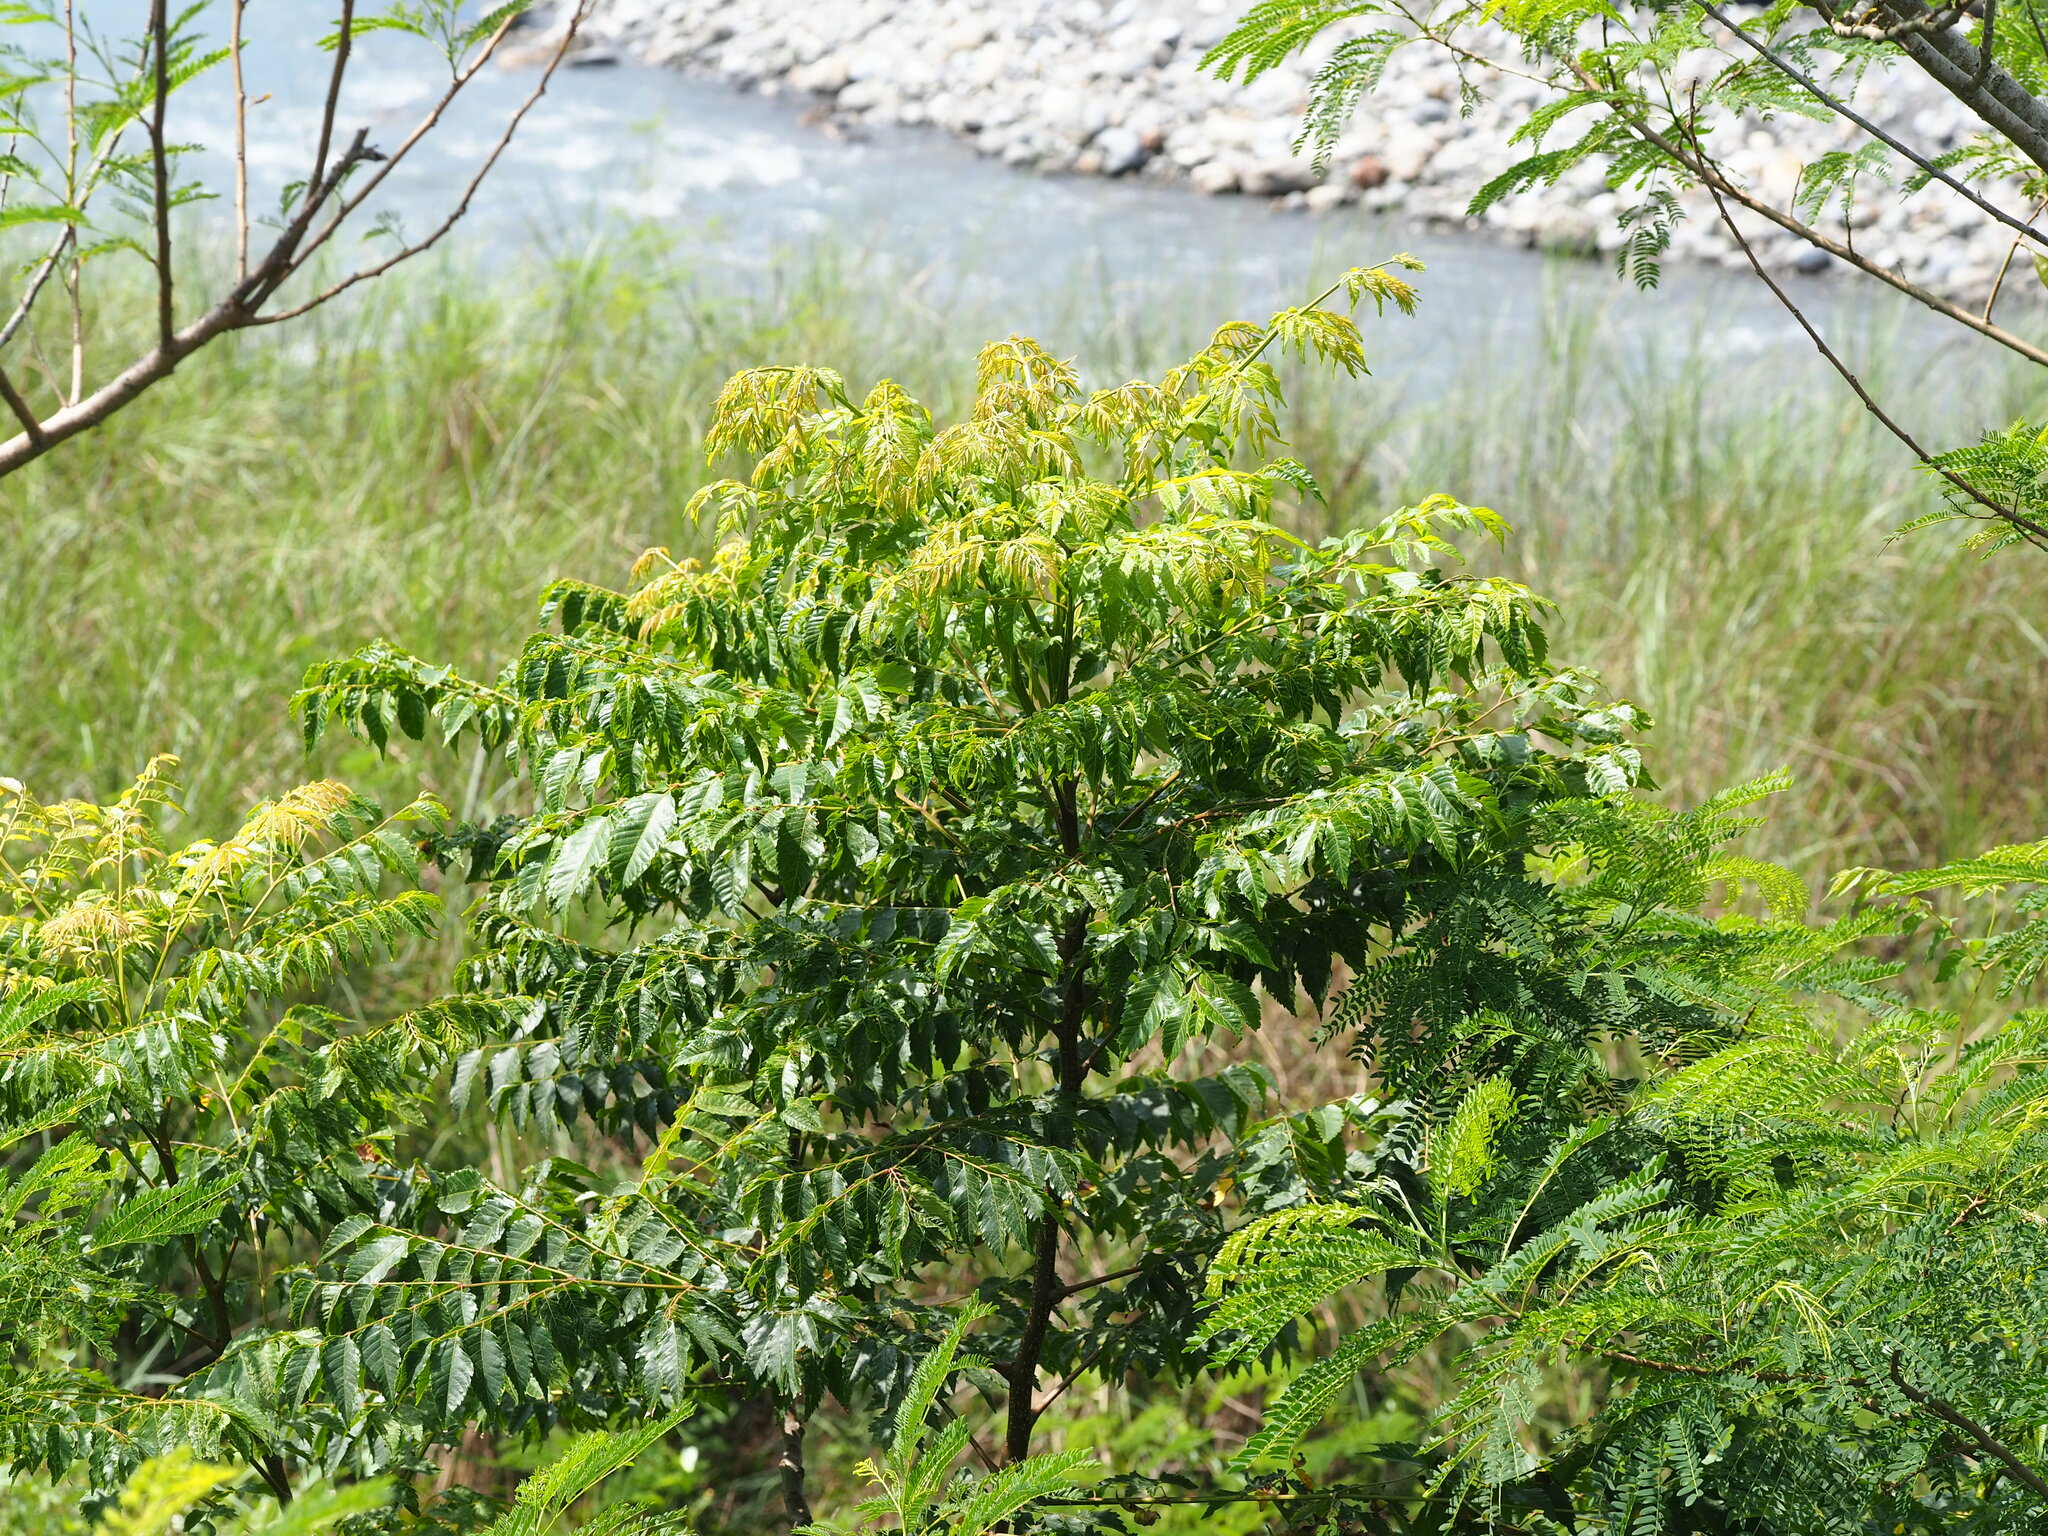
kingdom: Plantae
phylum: Tracheophyta
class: Magnoliopsida
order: Sapindales
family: Sapindaceae
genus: Koelreuteria
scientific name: Koelreuteria elegans
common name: Chinese flame tree
